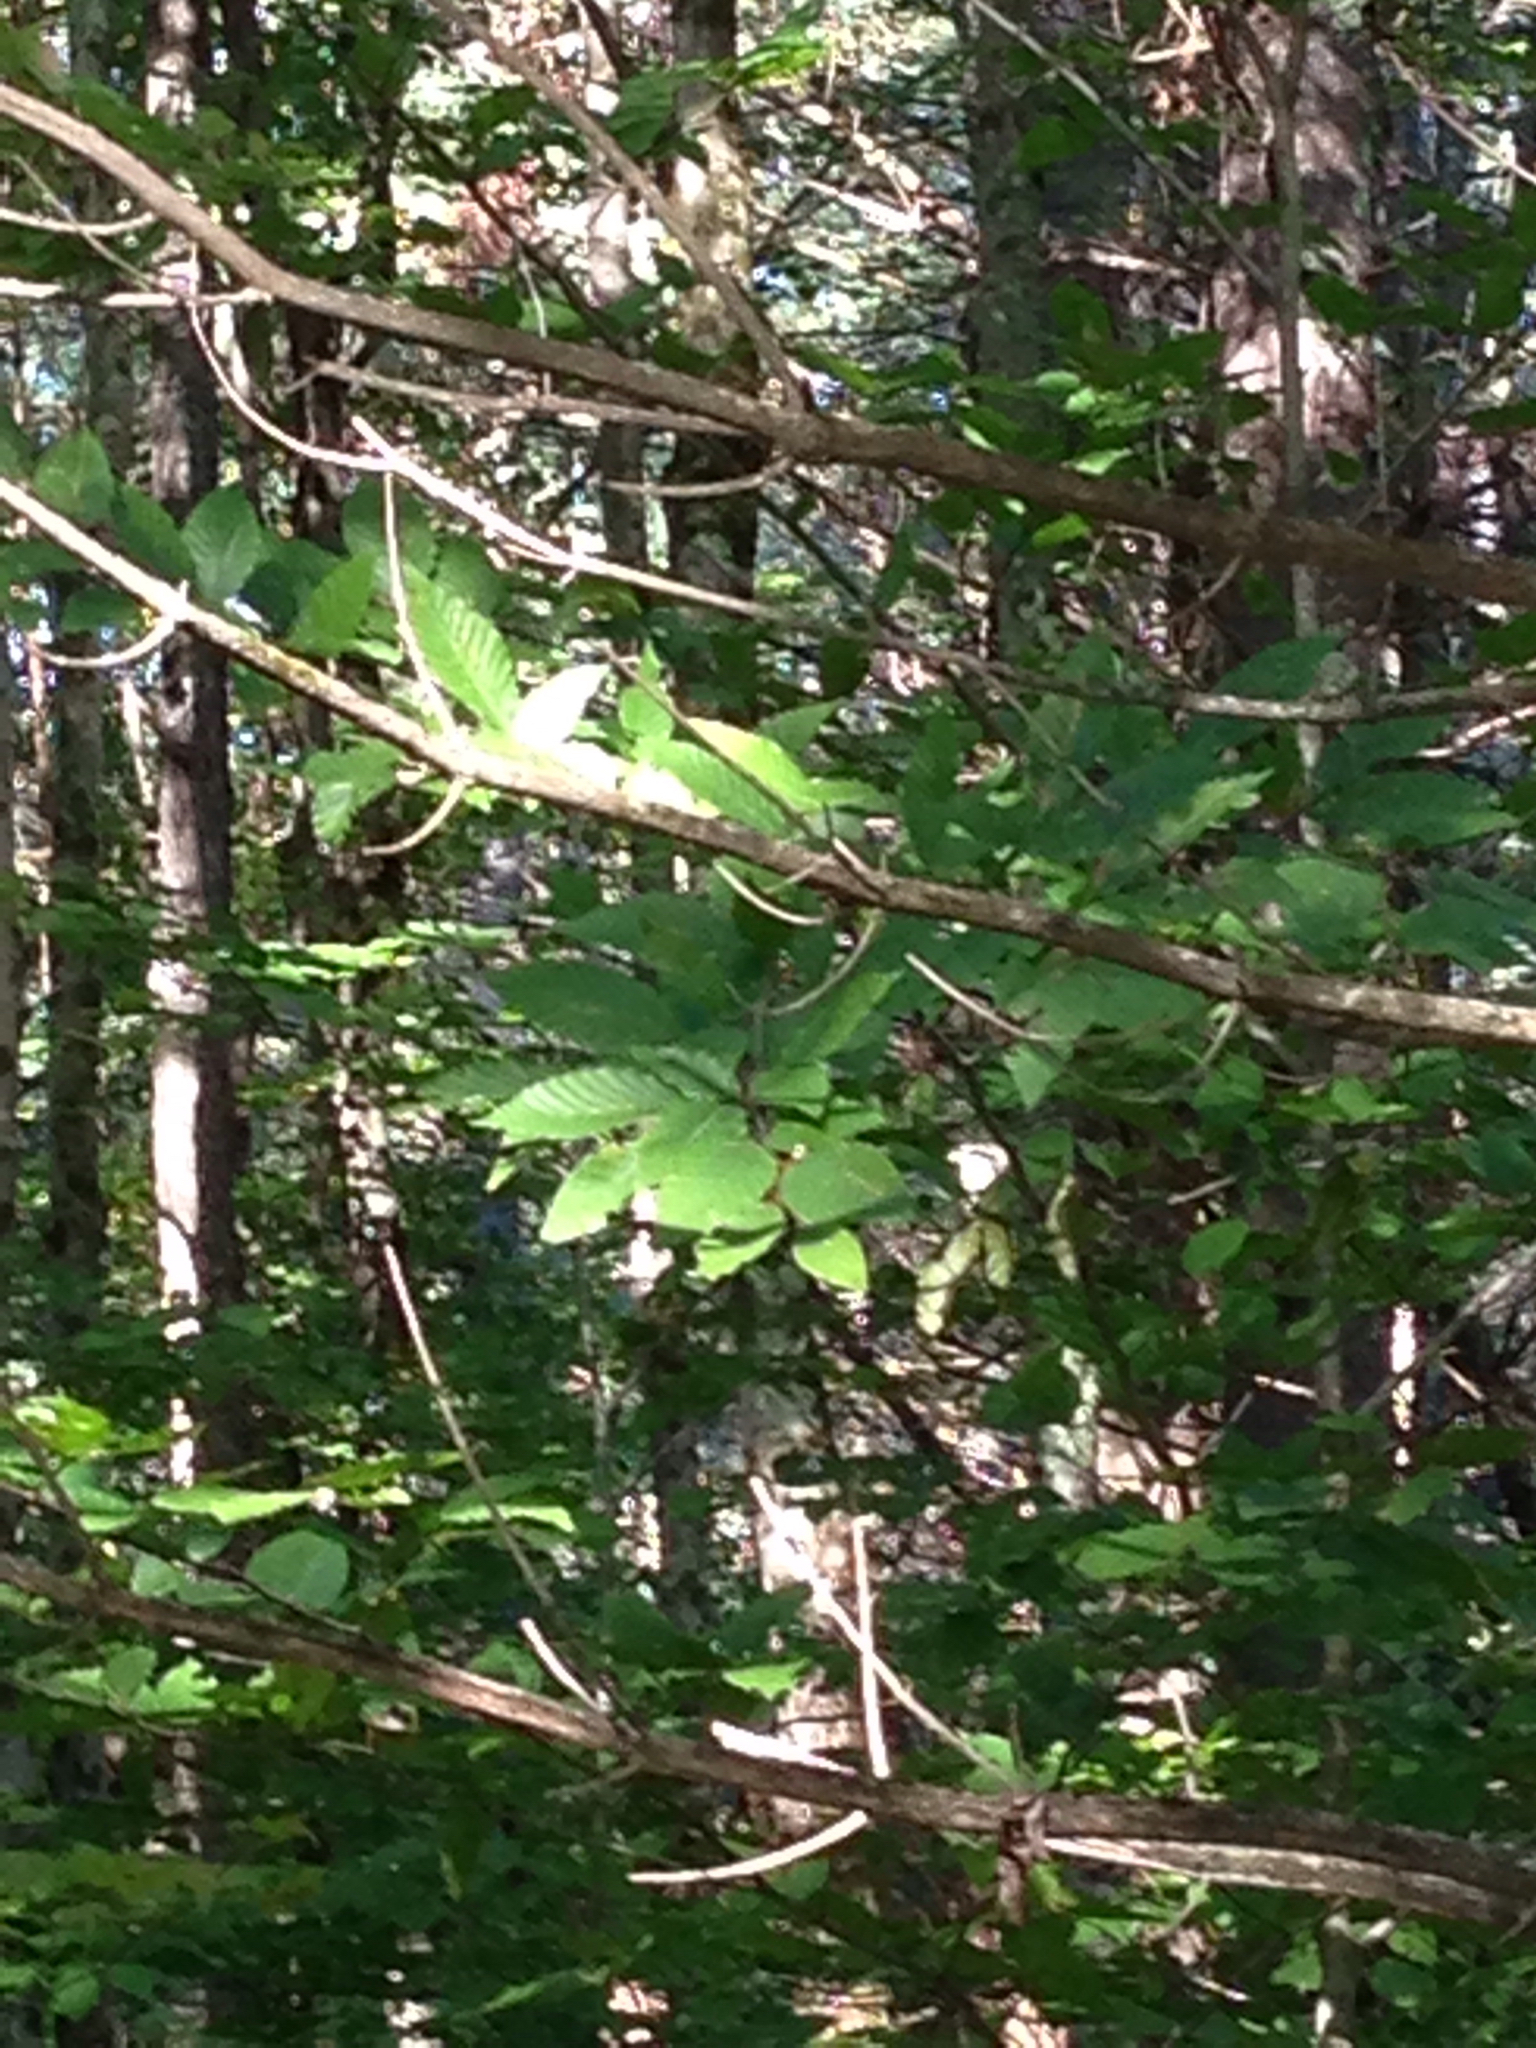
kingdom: Plantae
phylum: Tracheophyta
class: Magnoliopsida
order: Fagales
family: Fagaceae
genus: Fagus
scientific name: Fagus grandifolia
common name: American beech
